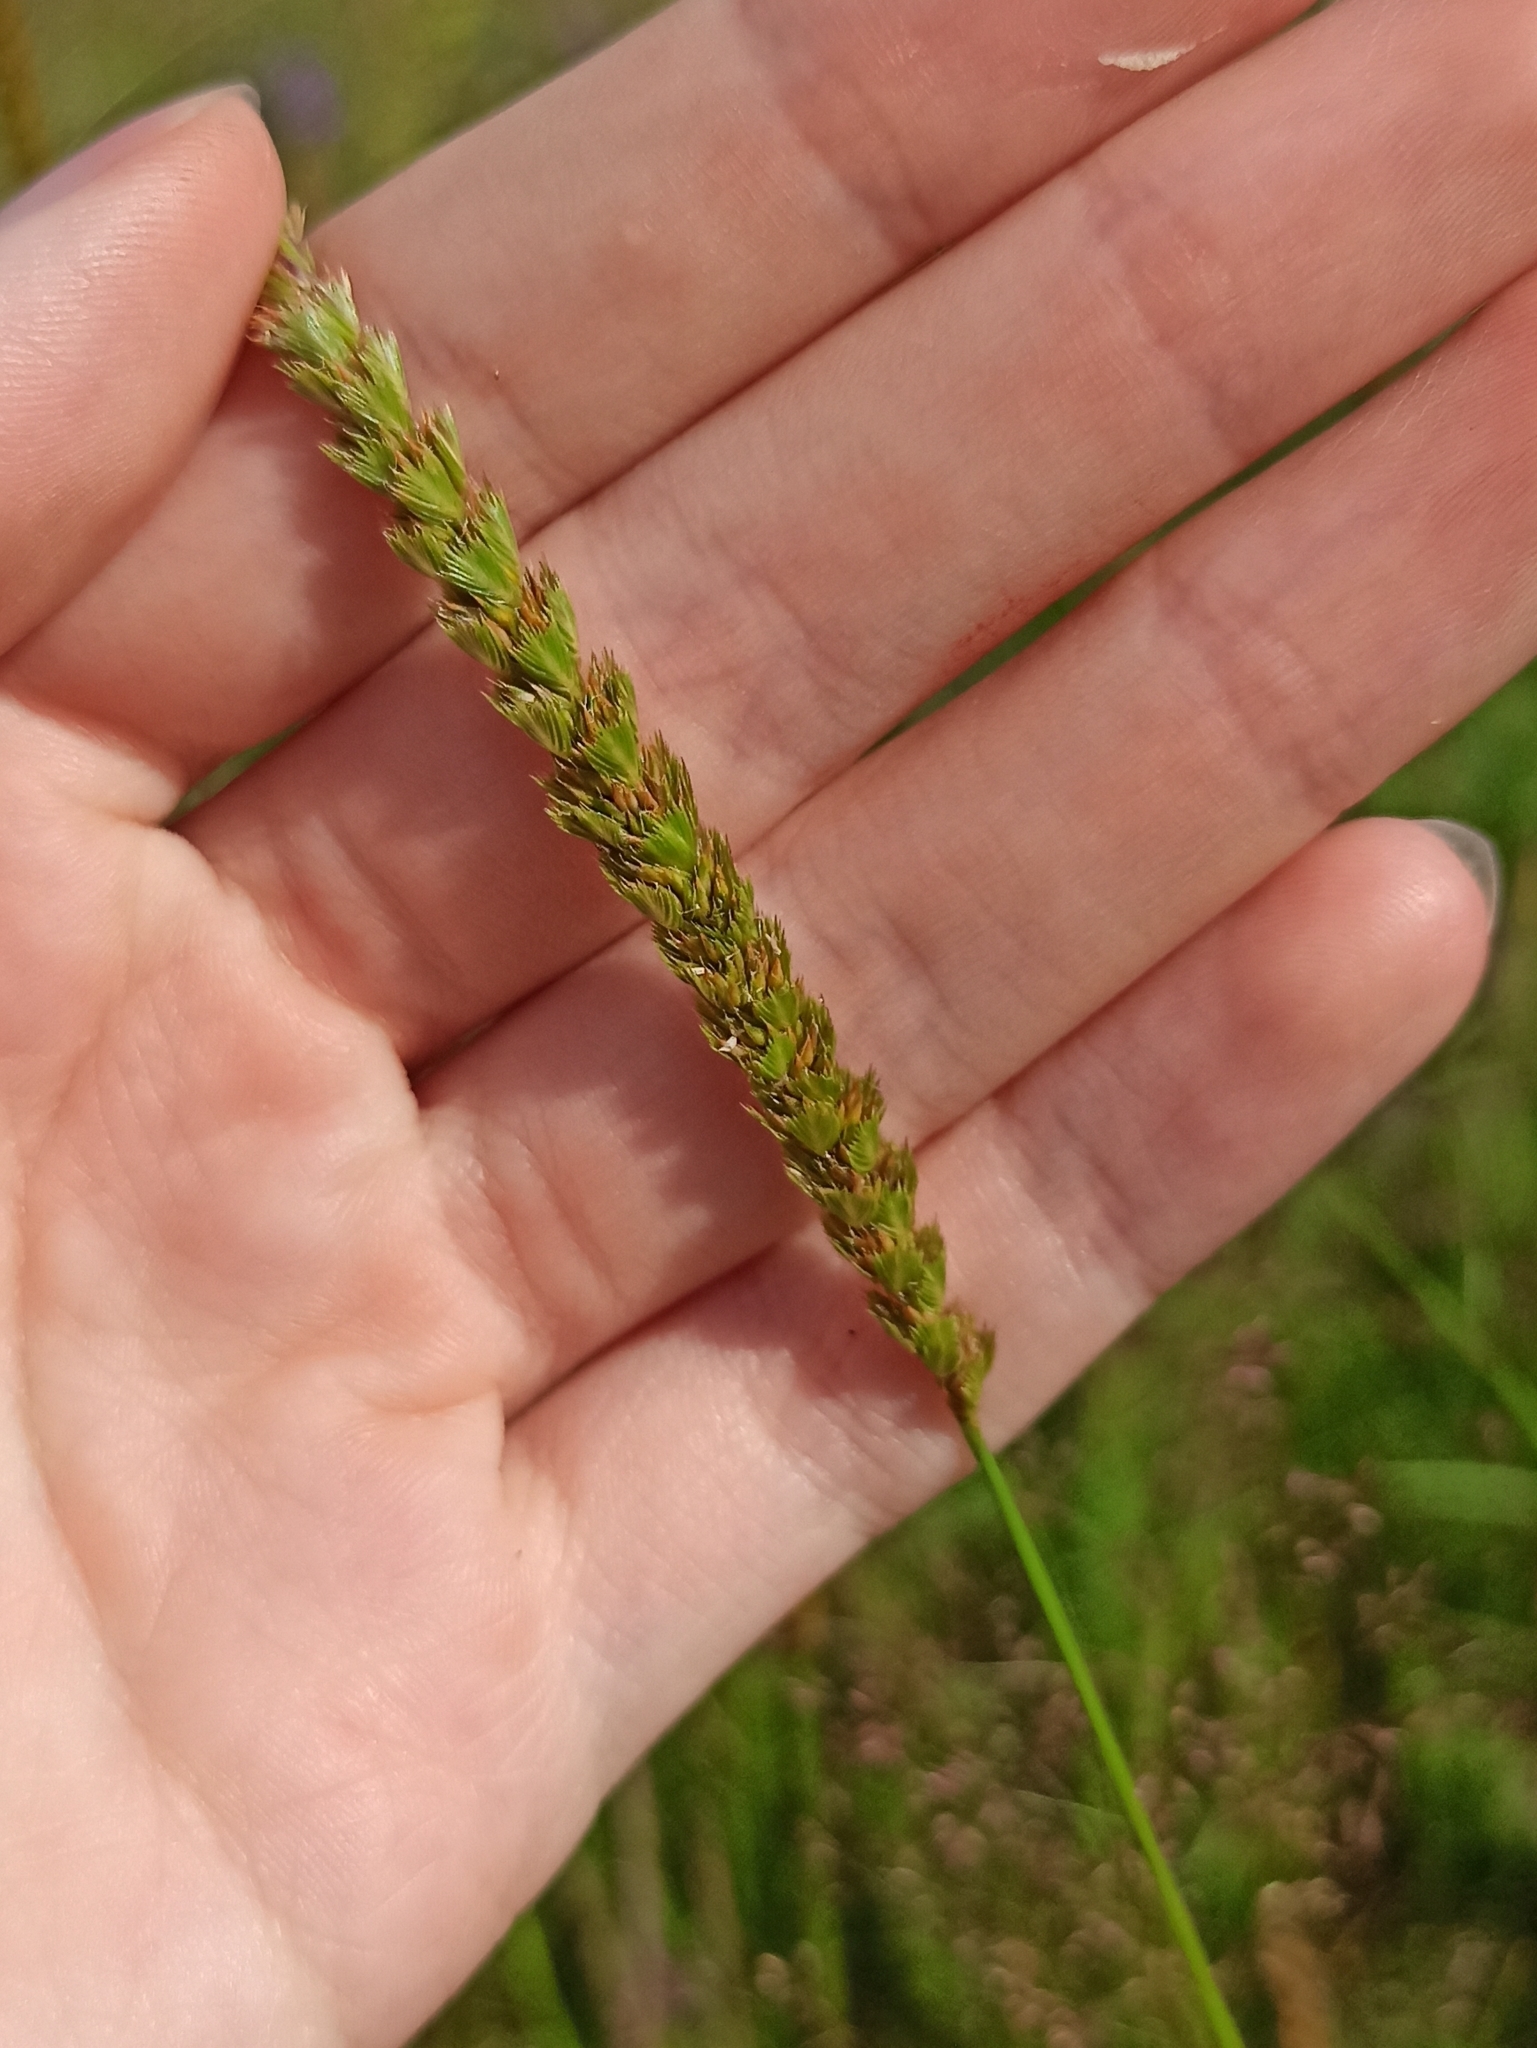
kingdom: Plantae
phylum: Tracheophyta
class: Liliopsida
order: Poales
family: Poaceae
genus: Cynosurus
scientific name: Cynosurus cristatus
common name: Crested dog's-tail
